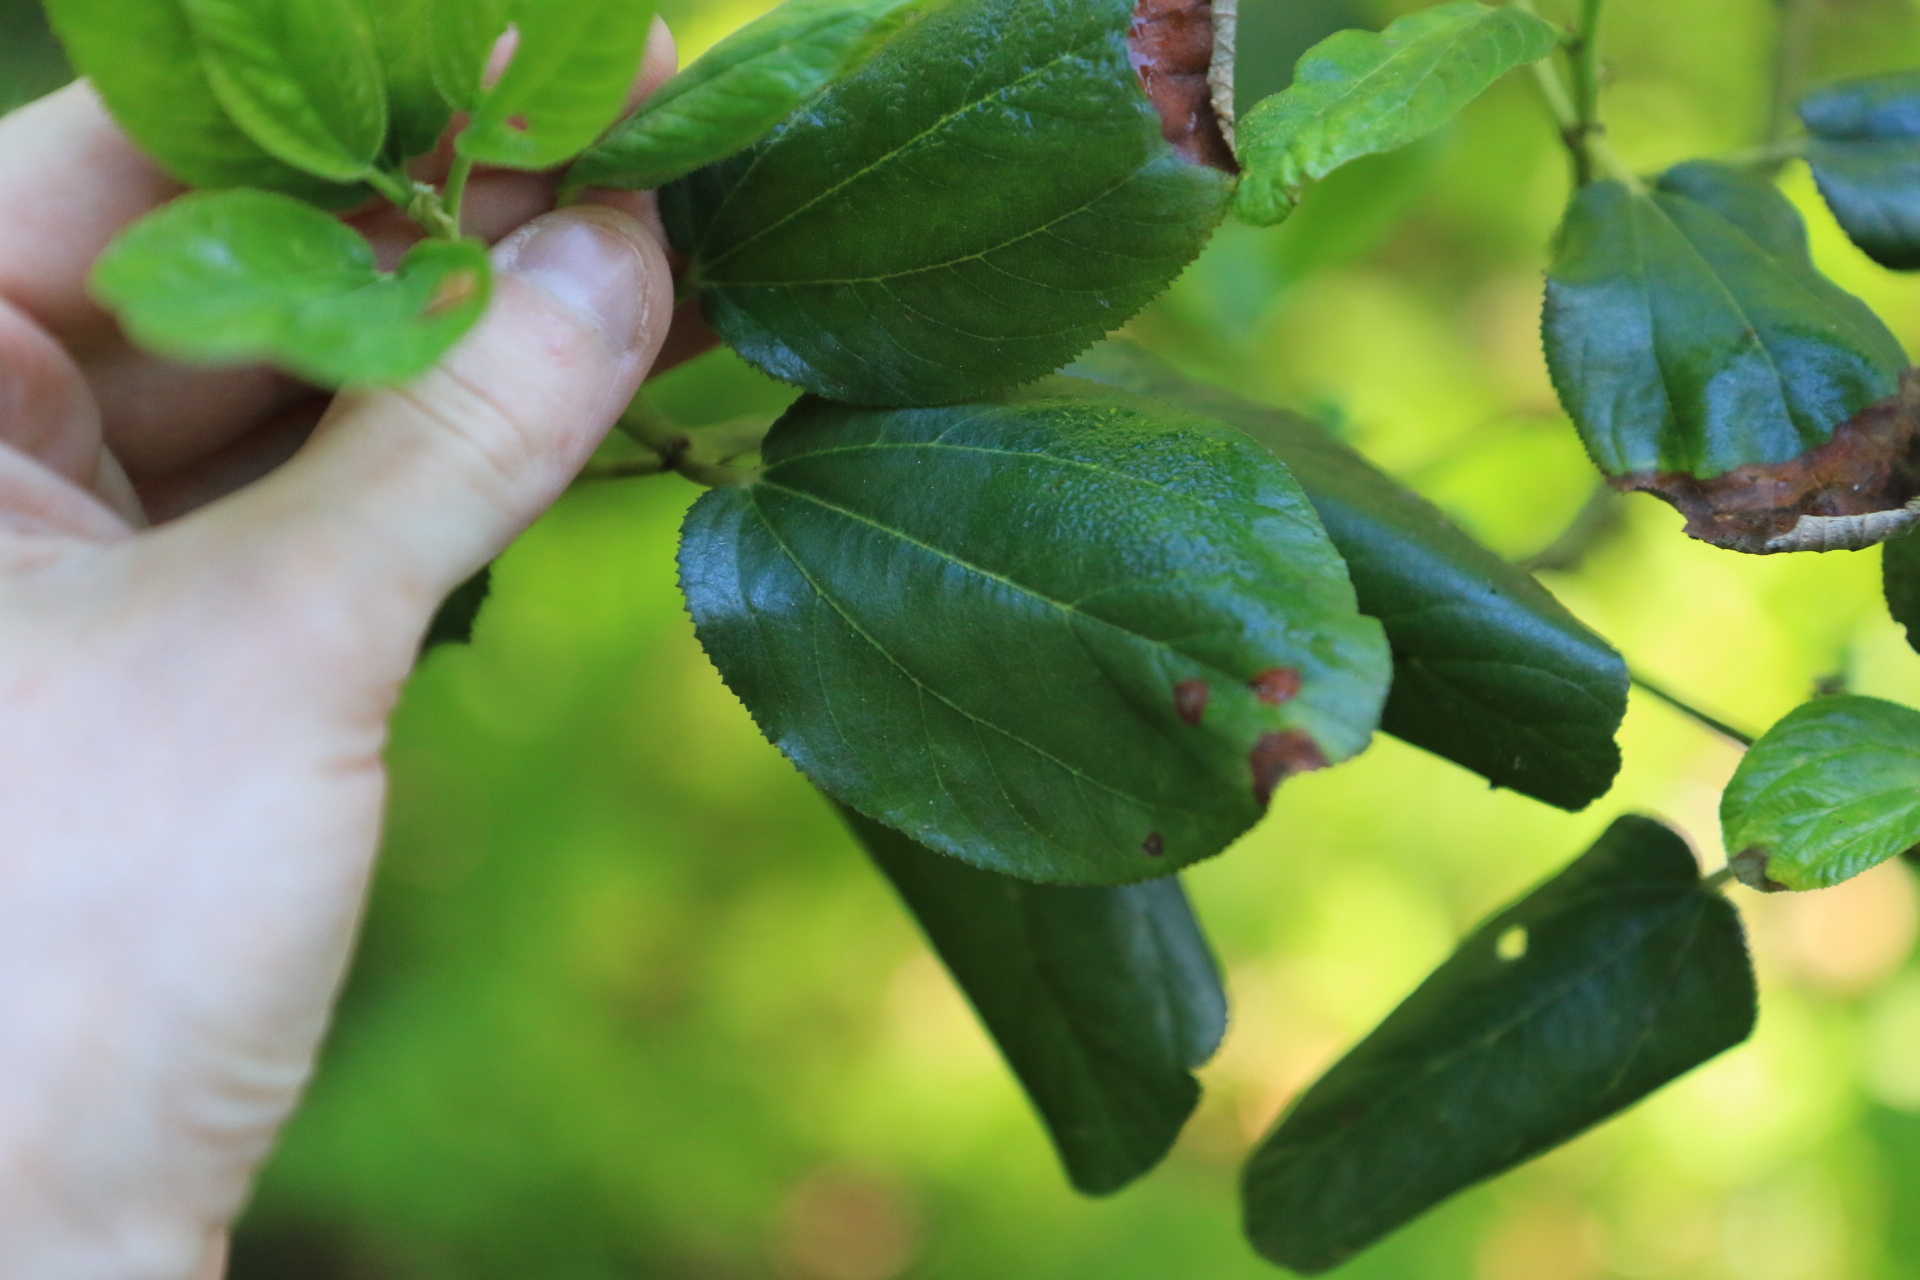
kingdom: Plantae
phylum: Tracheophyta
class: Magnoliopsida
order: Rosales
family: Rhamnaceae
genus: Ceanothus
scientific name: Ceanothus velutinus
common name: Snowbrush
